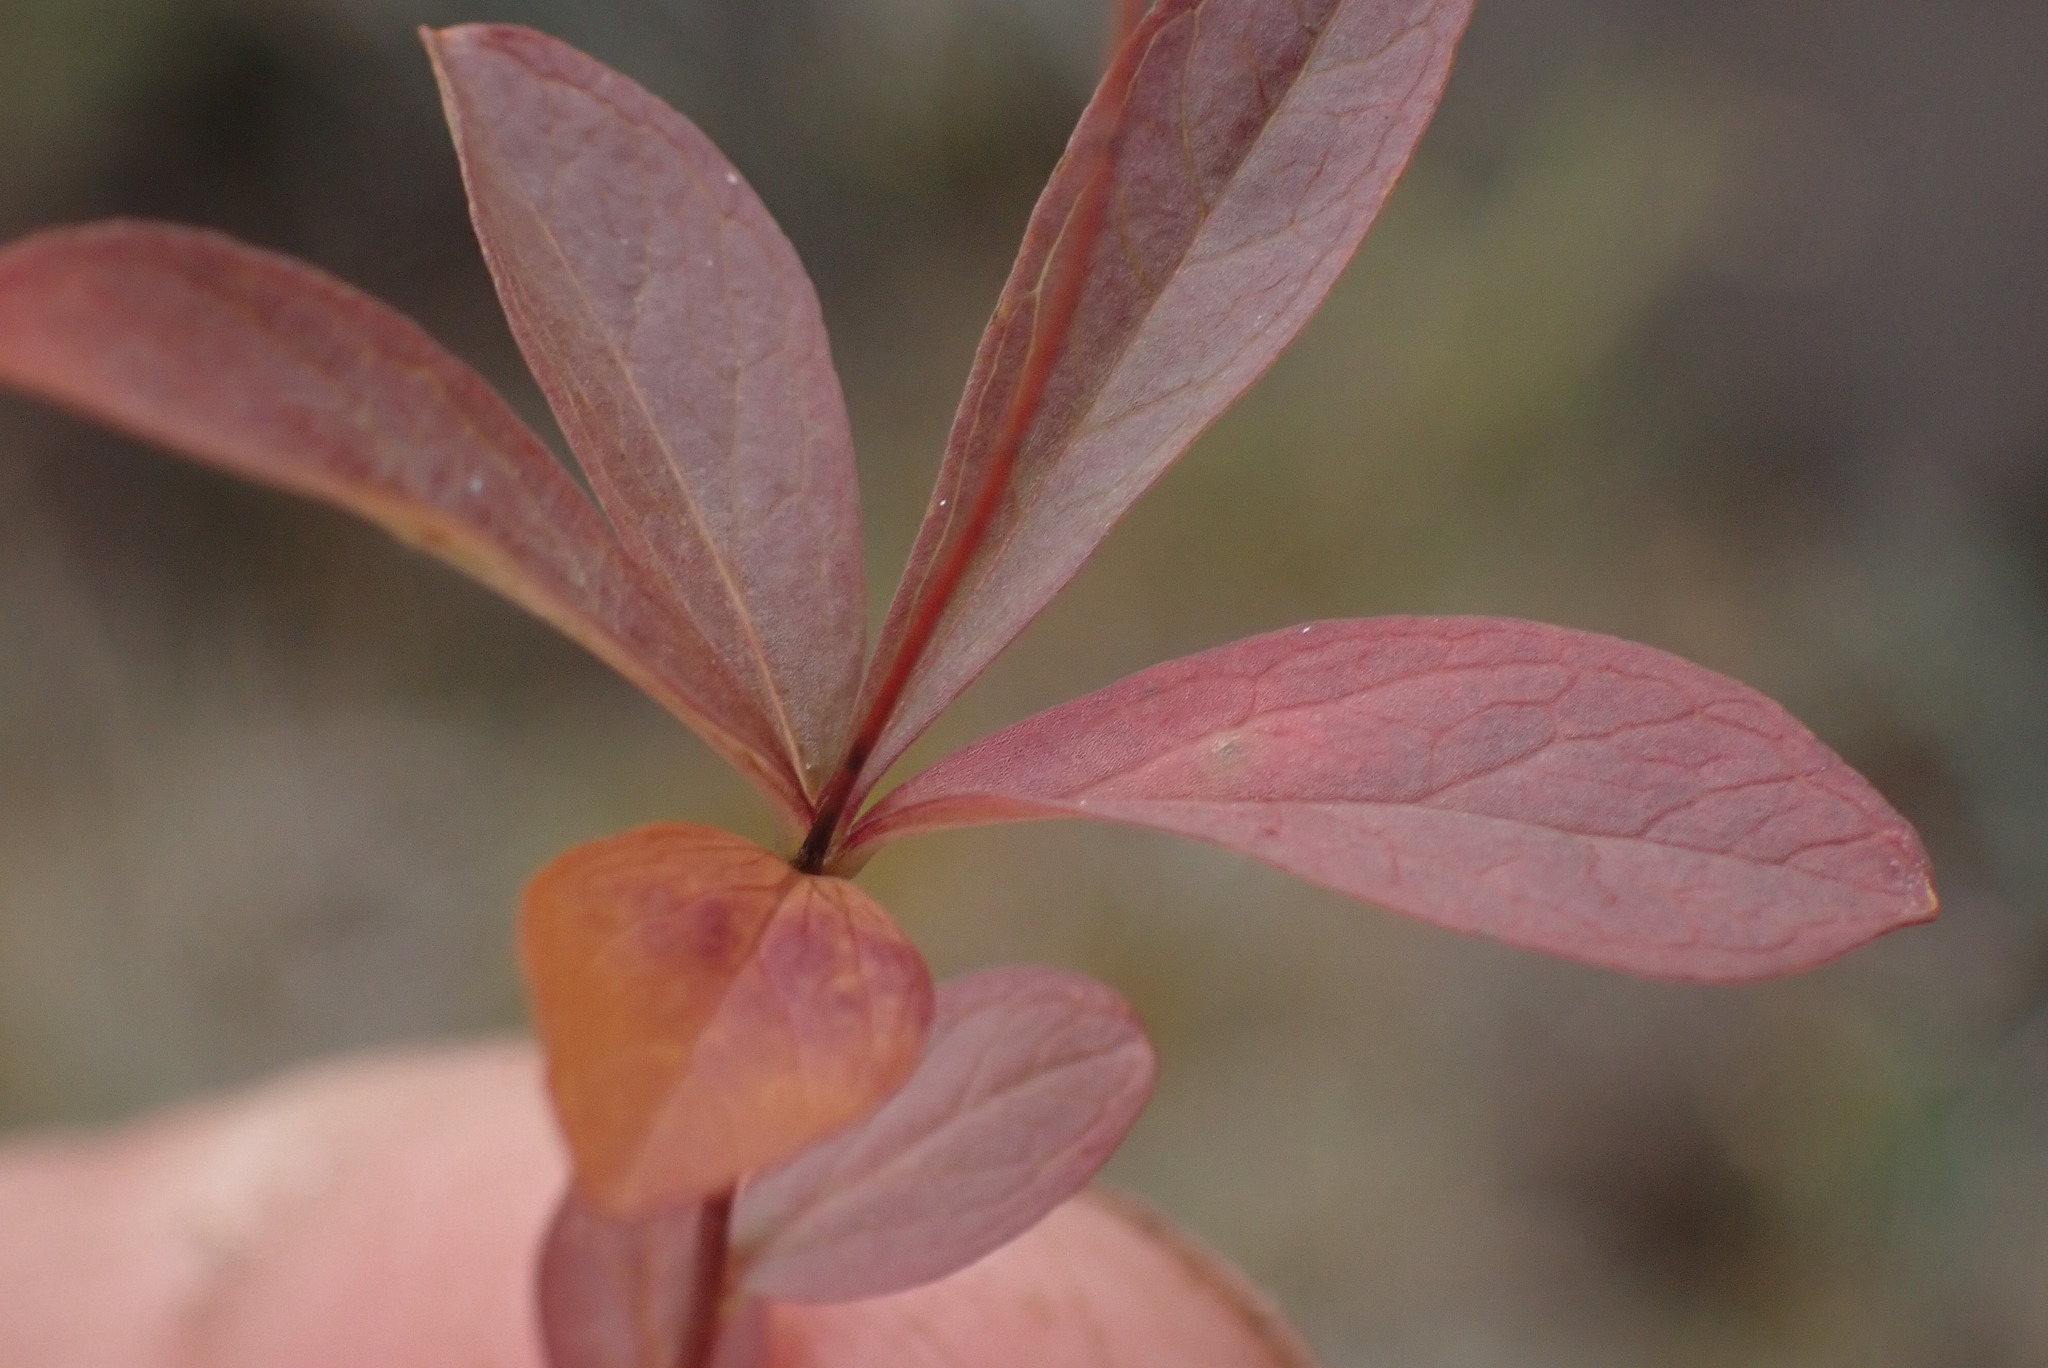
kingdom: Plantae
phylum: Tracheophyta
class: Magnoliopsida
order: Ericales
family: Primulaceae
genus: Lysimachia
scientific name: Lysimachia europaea
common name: Arctic starflower
